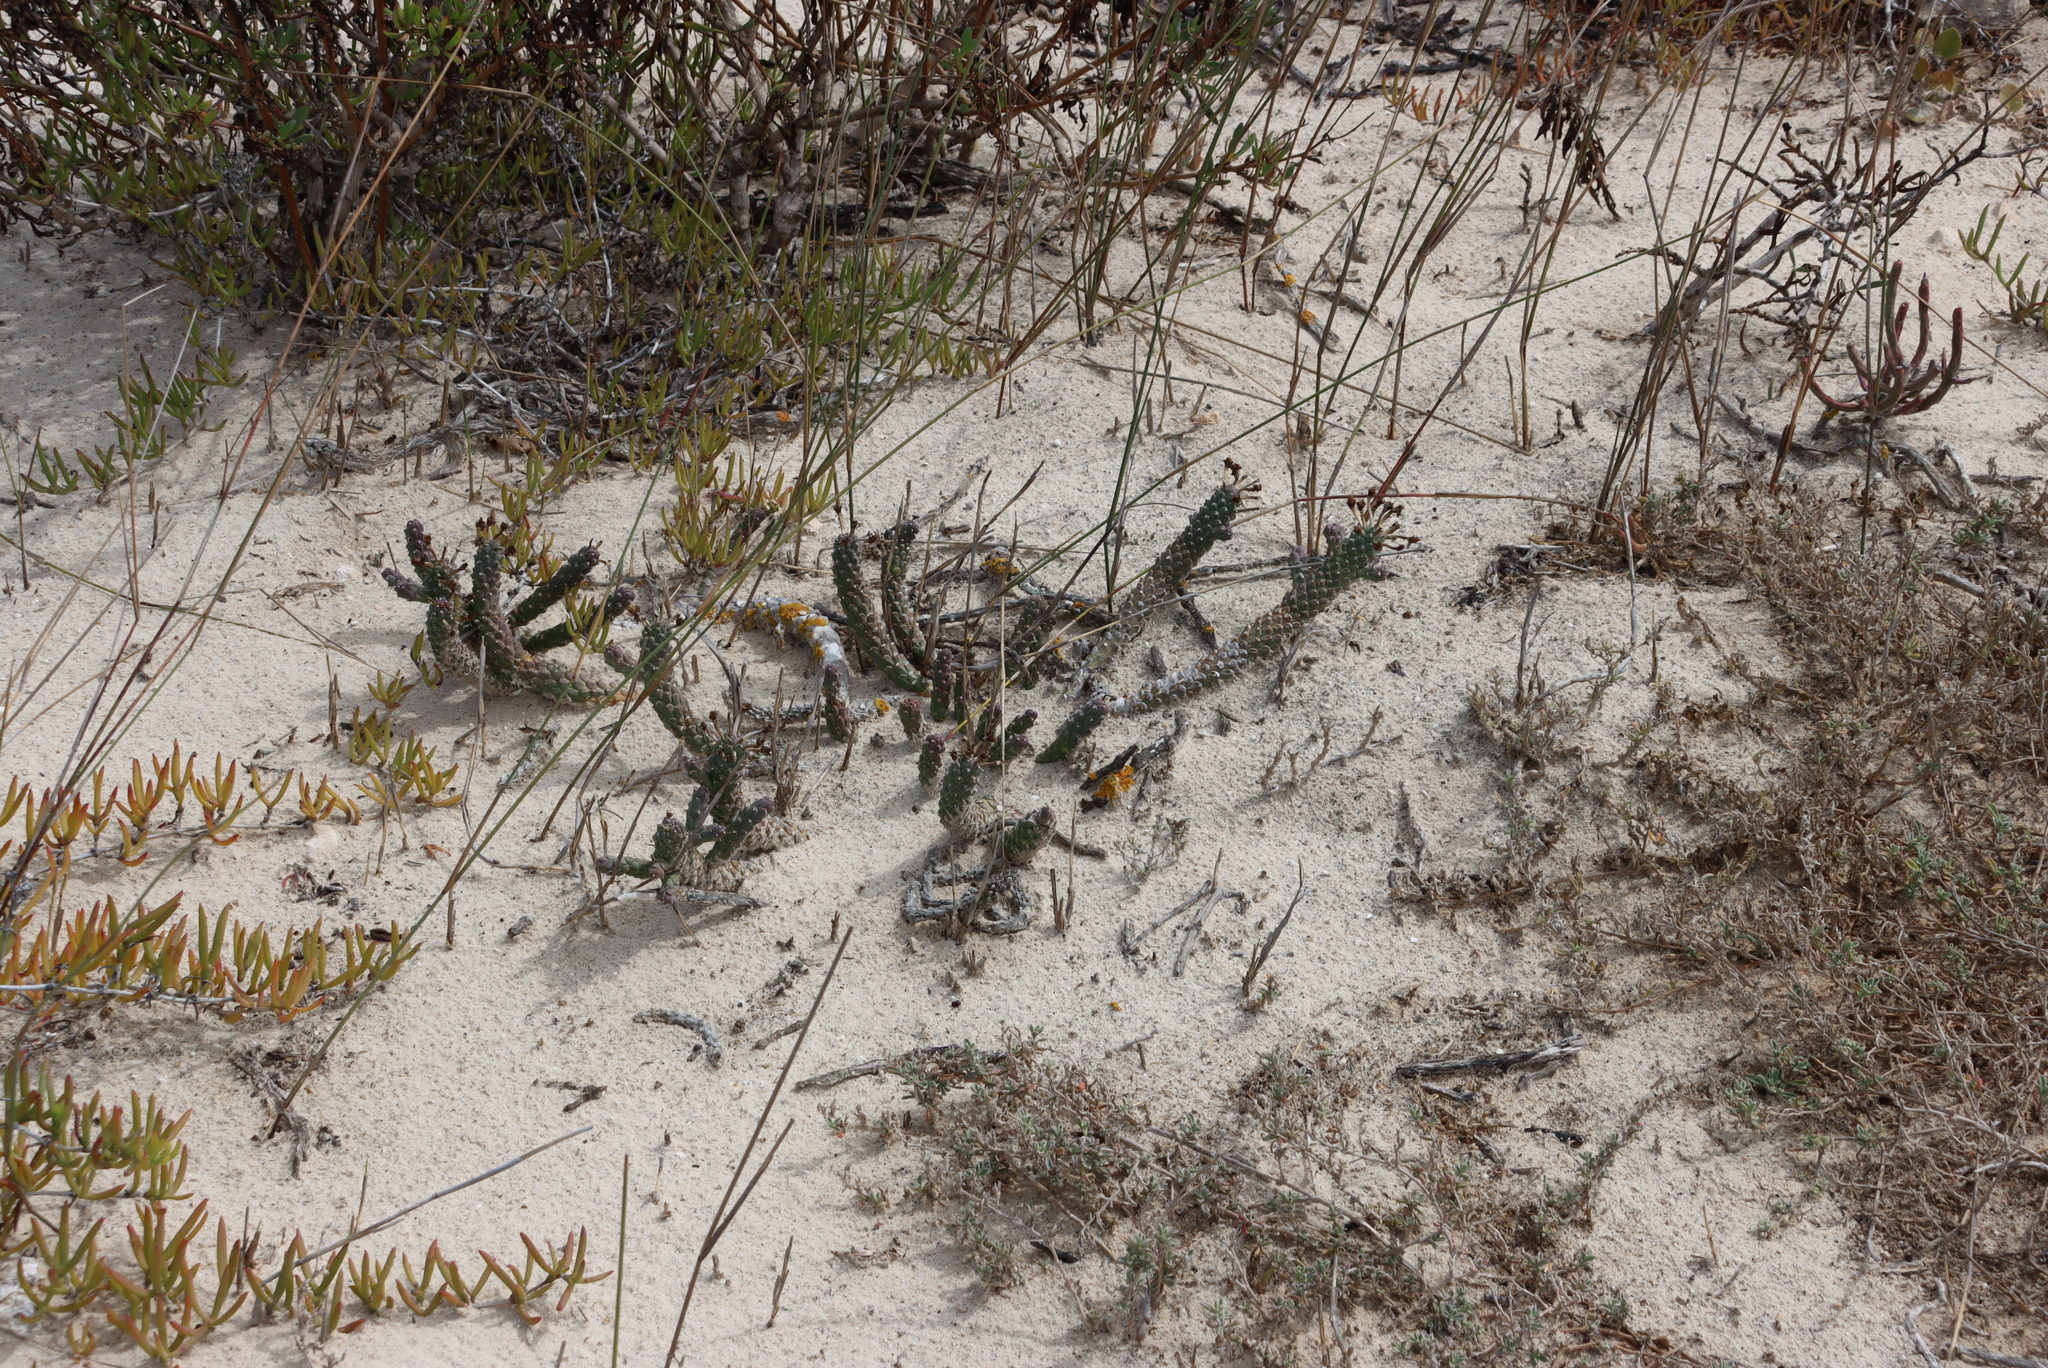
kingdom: Plantae
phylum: Tracheophyta
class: Magnoliopsida
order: Malpighiales
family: Euphorbiaceae
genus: Euphorbia
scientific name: Euphorbia caput-medusae
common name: Medusa's-head
